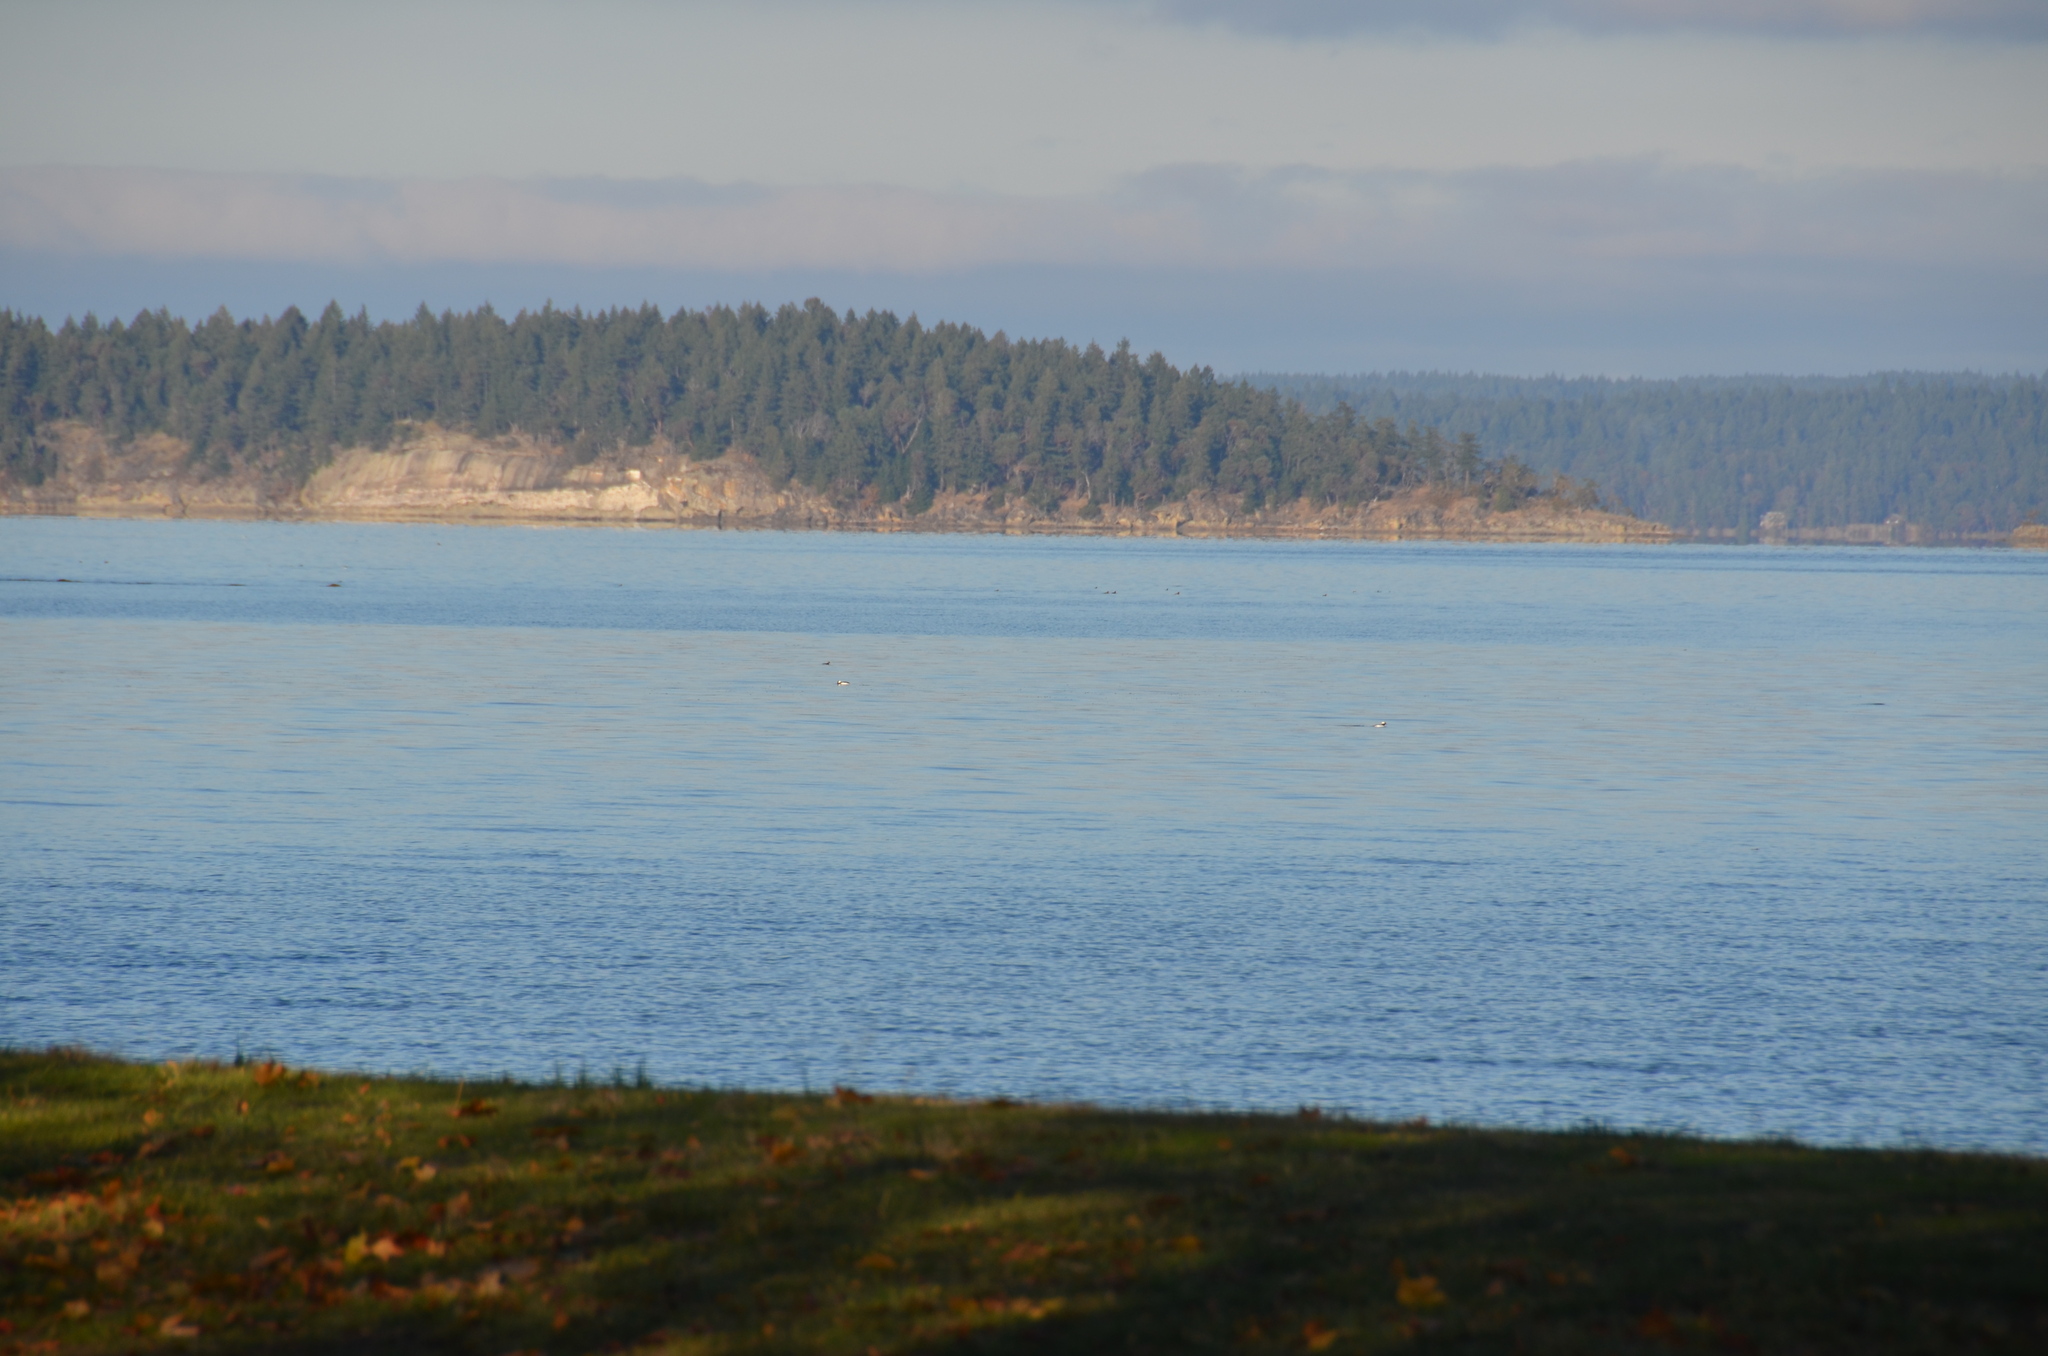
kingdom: Animalia
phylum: Chordata
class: Aves
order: Anseriformes
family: Anatidae
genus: Bucephala
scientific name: Bucephala albeola
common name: Bufflehead
